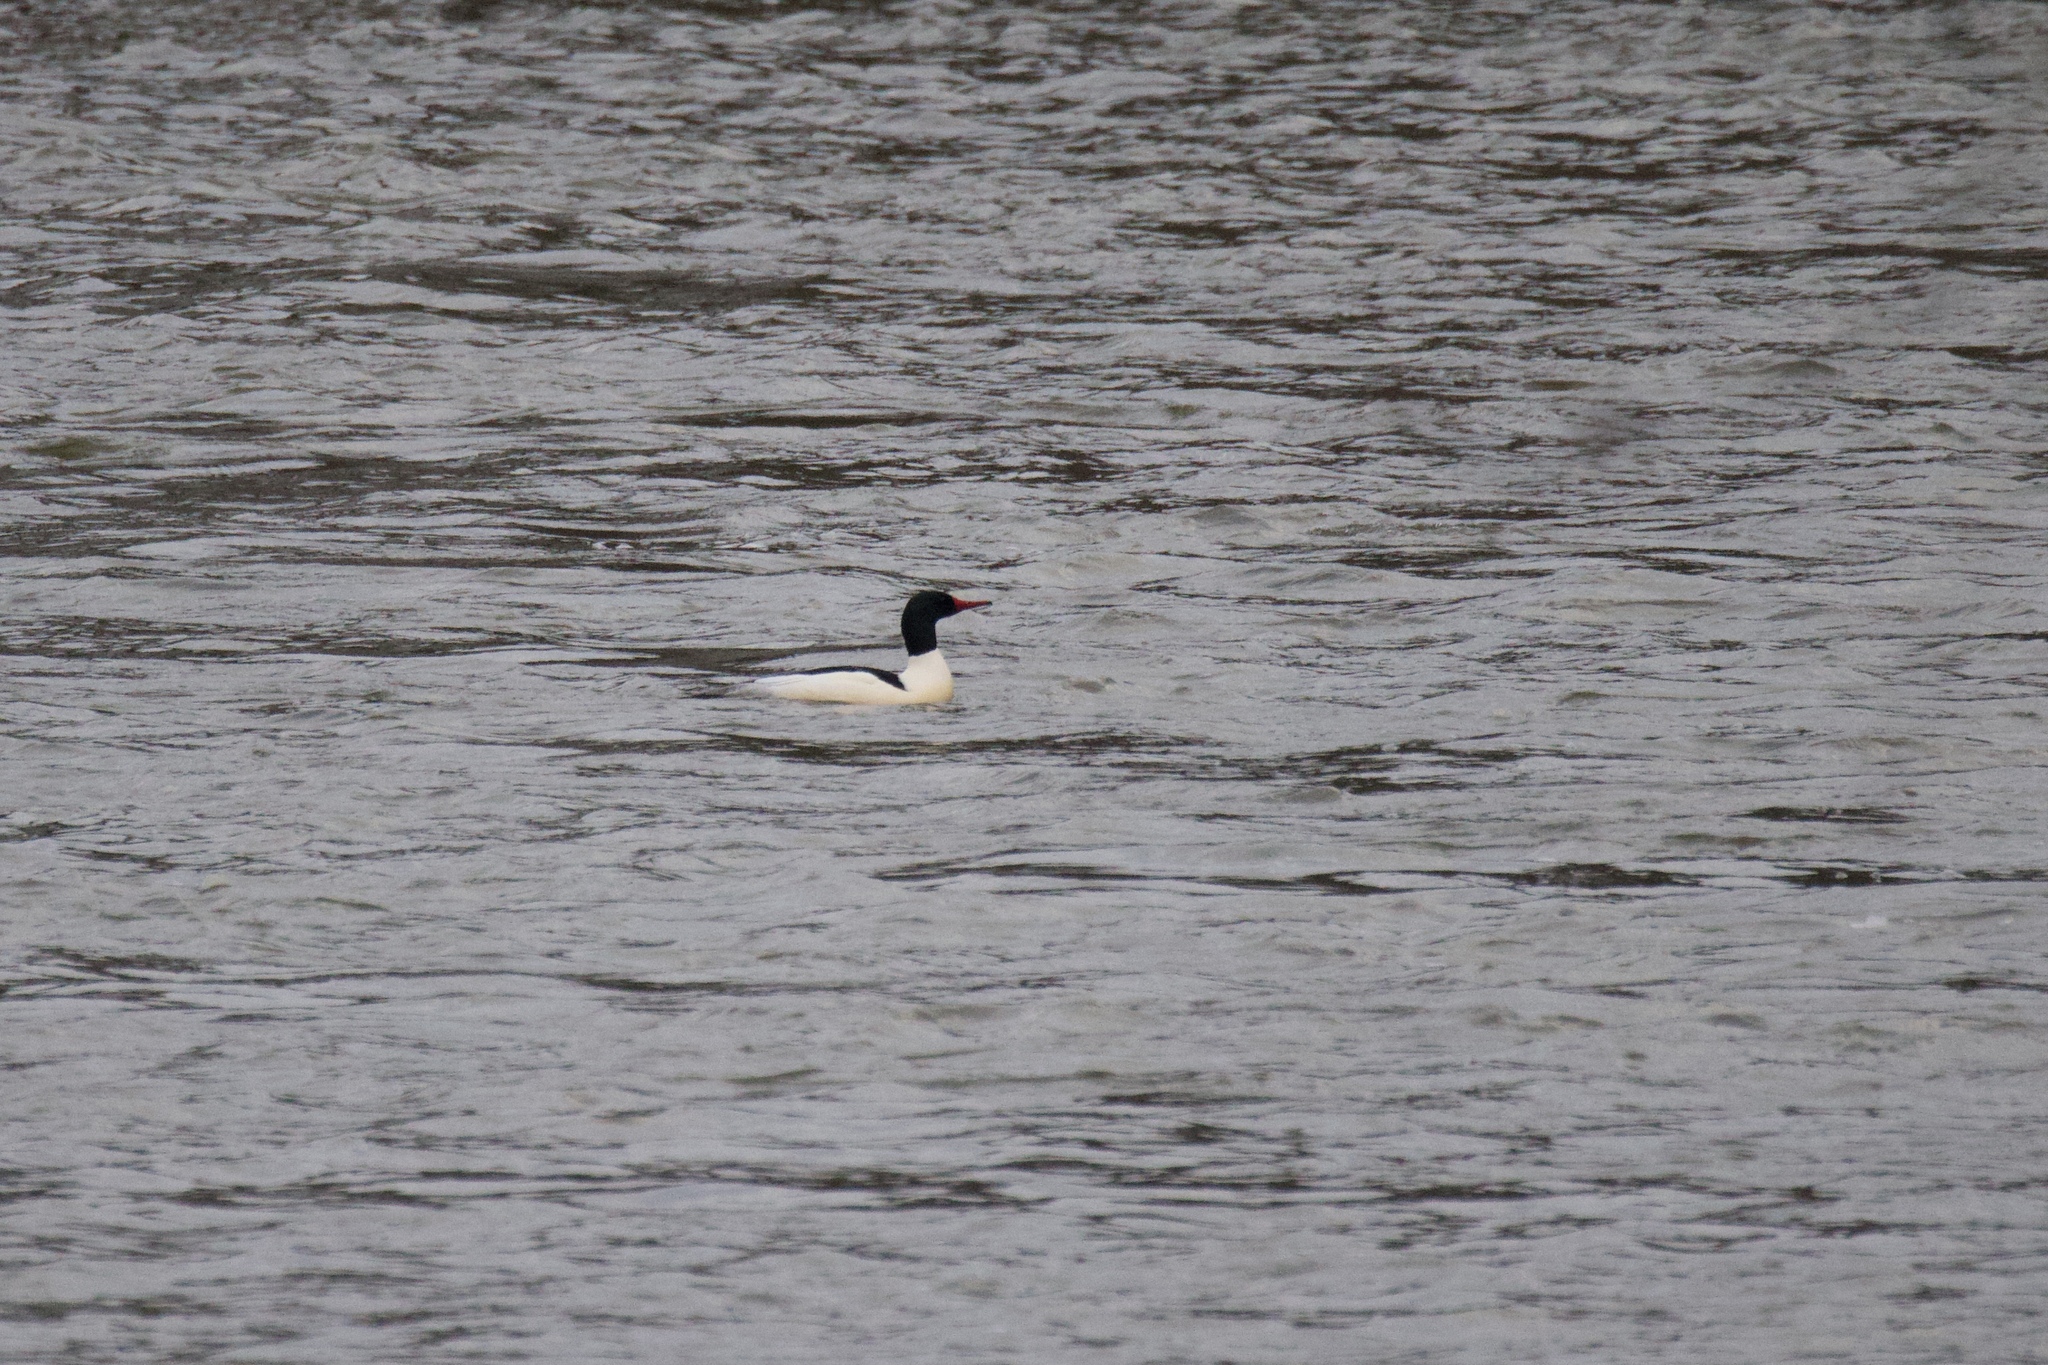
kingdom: Animalia
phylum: Chordata
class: Aves
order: Anseriformes
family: Anatidae
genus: Mergus
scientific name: Mergus merganser
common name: Common merganser
